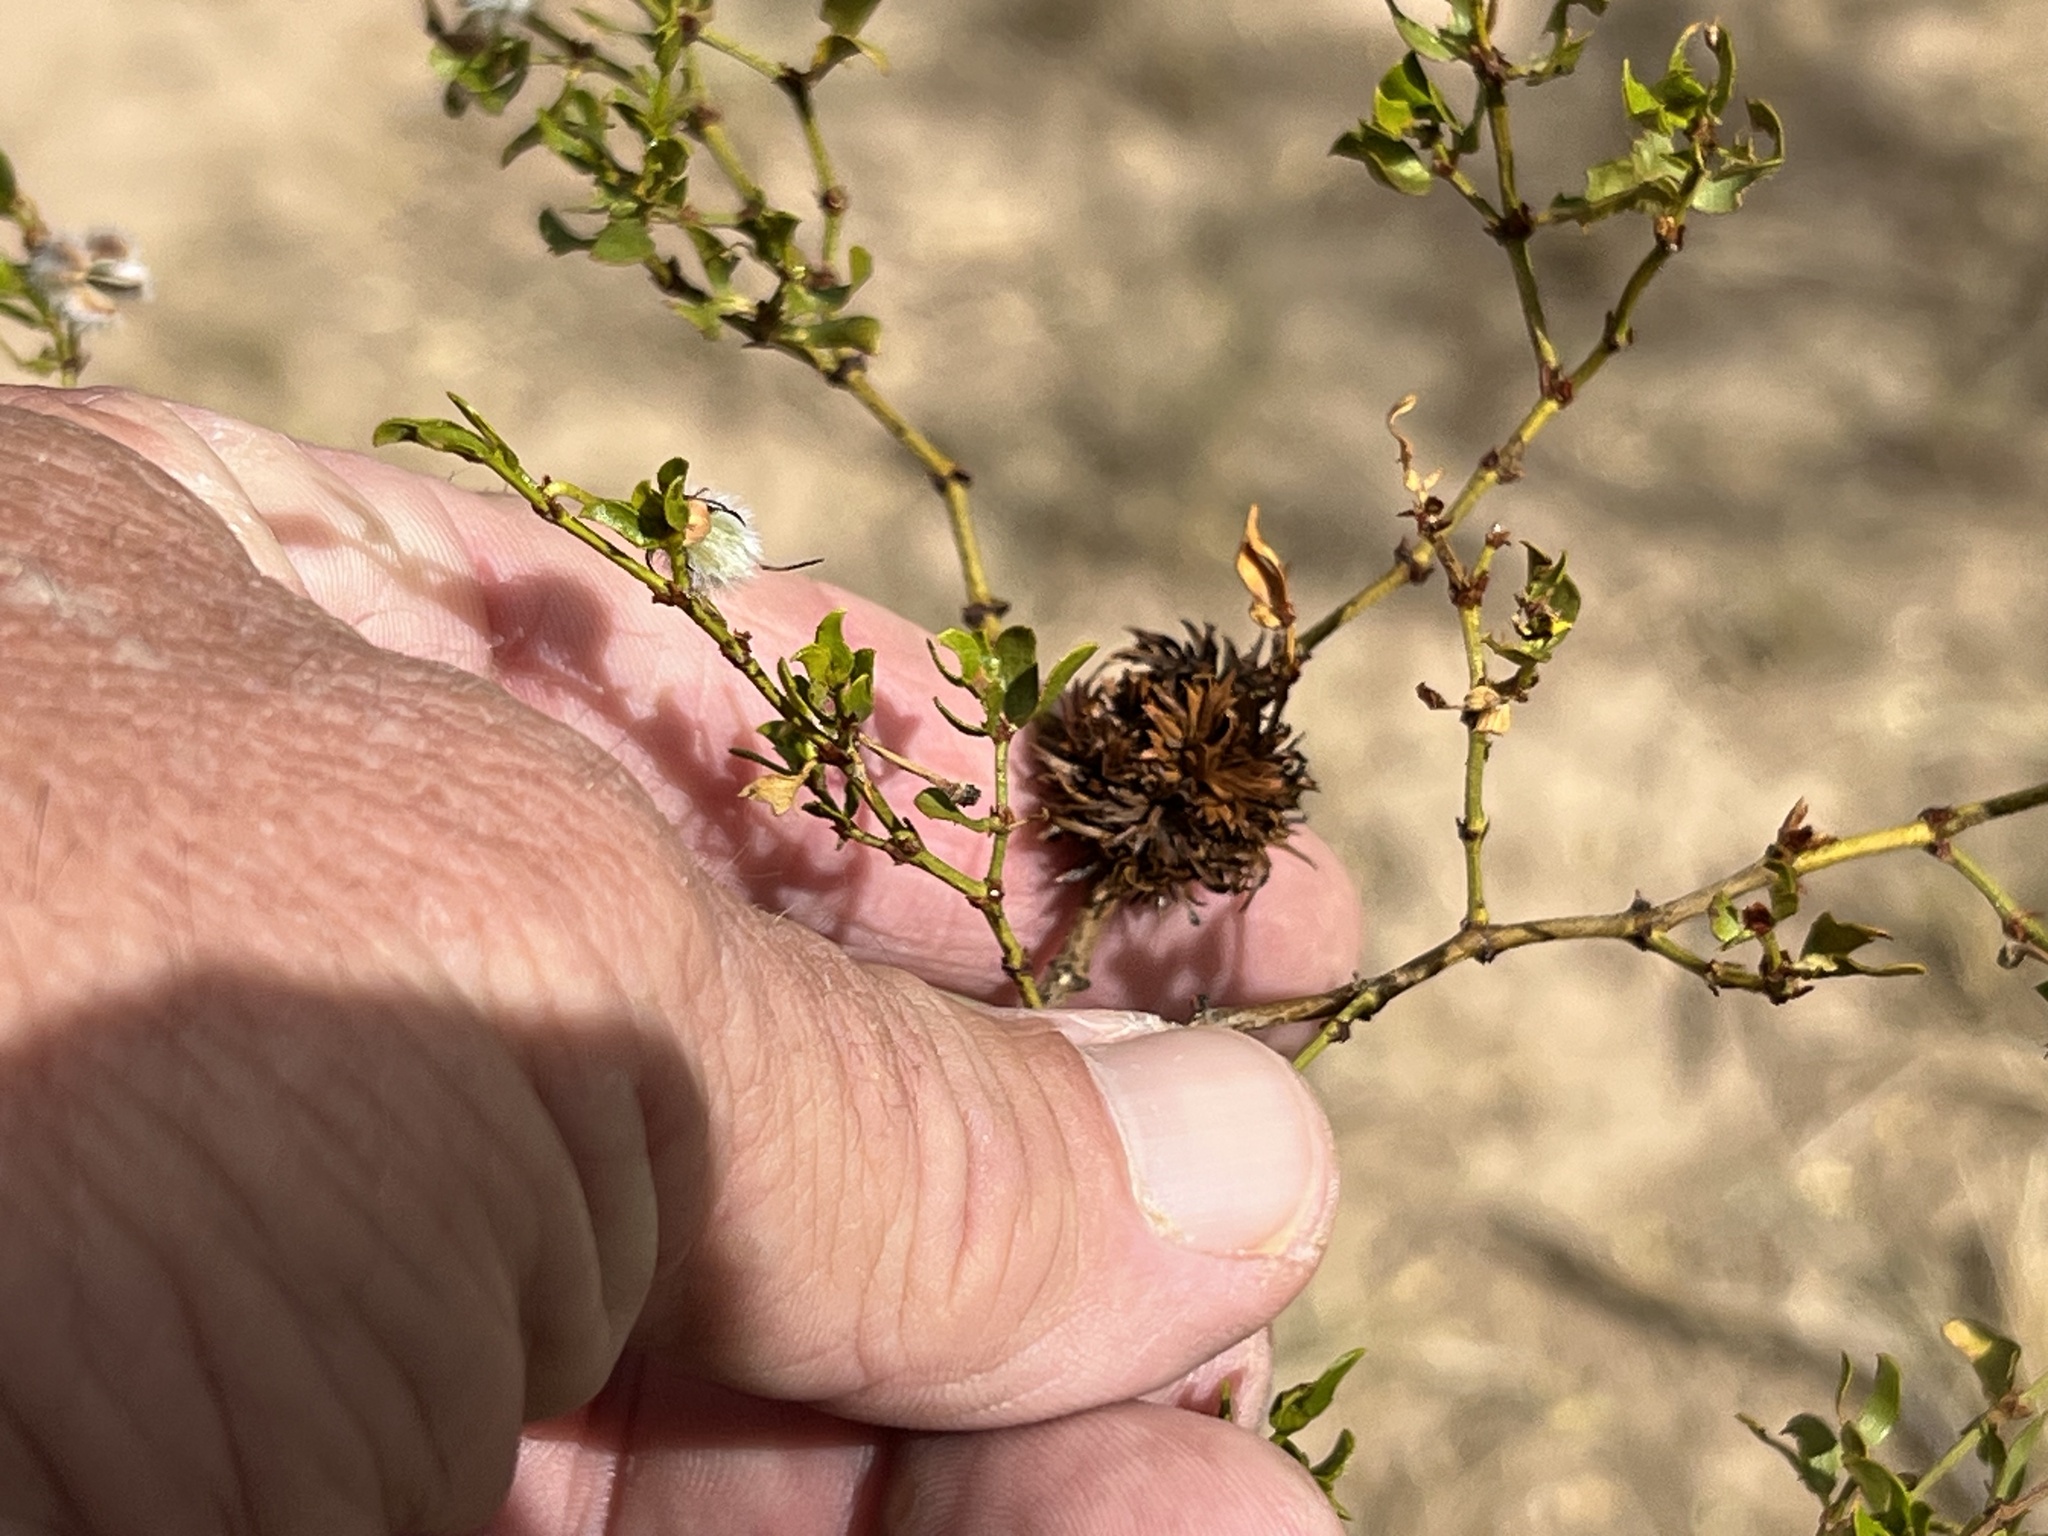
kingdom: Animalia
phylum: Arthropoda
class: Insecta
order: Diptera
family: Cecidomyiidae
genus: Asphondylia
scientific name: Asphondylia auripila
